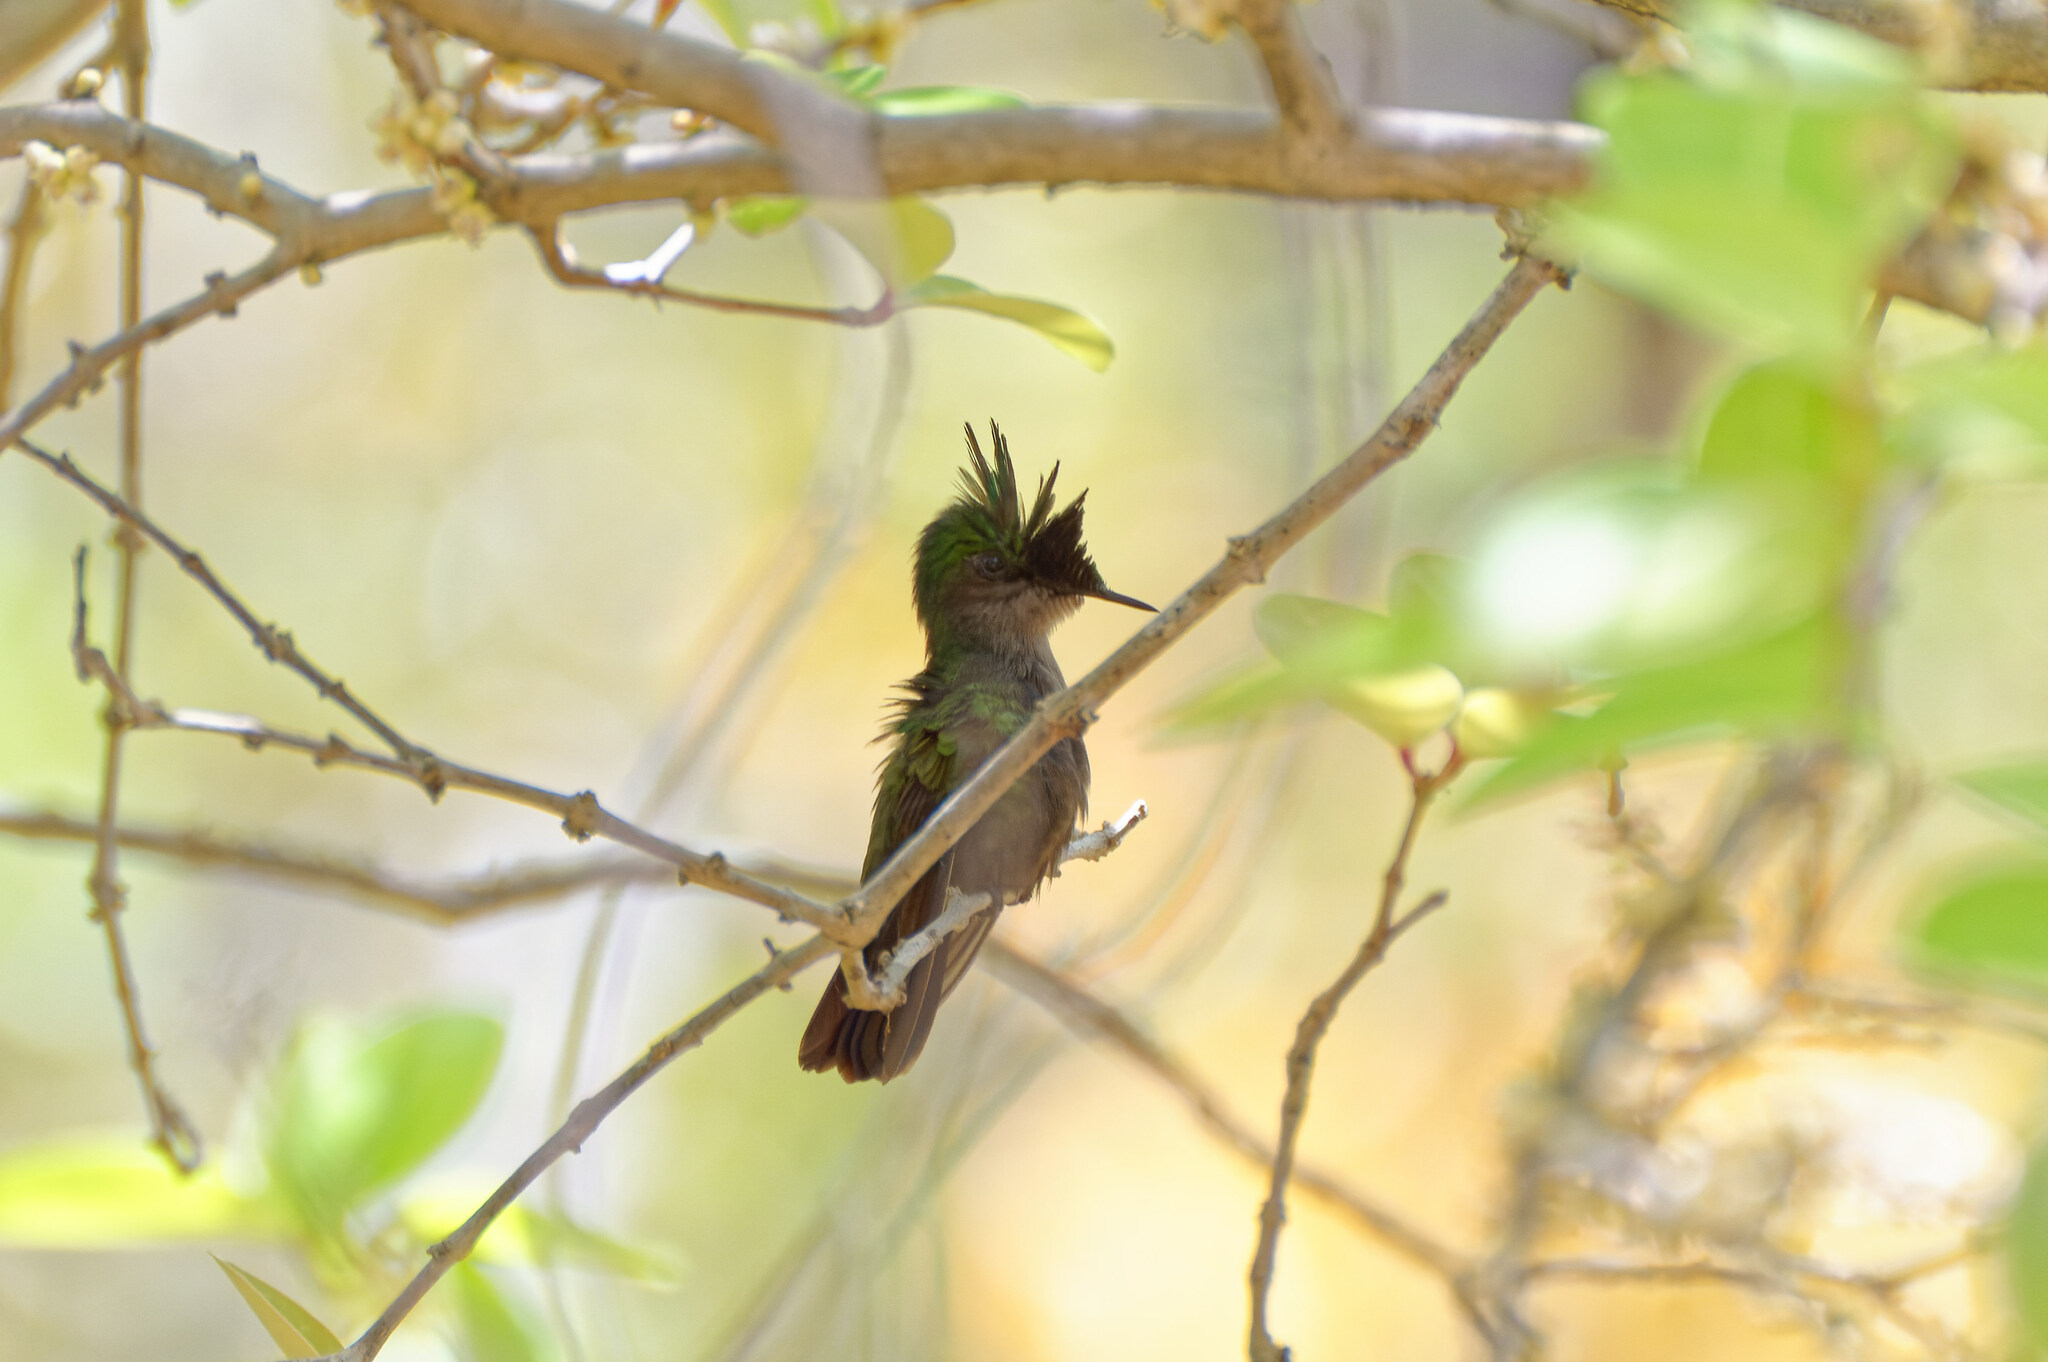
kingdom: Animalia
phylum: Chordata
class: Aves
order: Apodiformes
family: Trochilidae
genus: Orthorhyncus
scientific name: Orthorhyncus cristatus
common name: Antillean crested hummingbird
